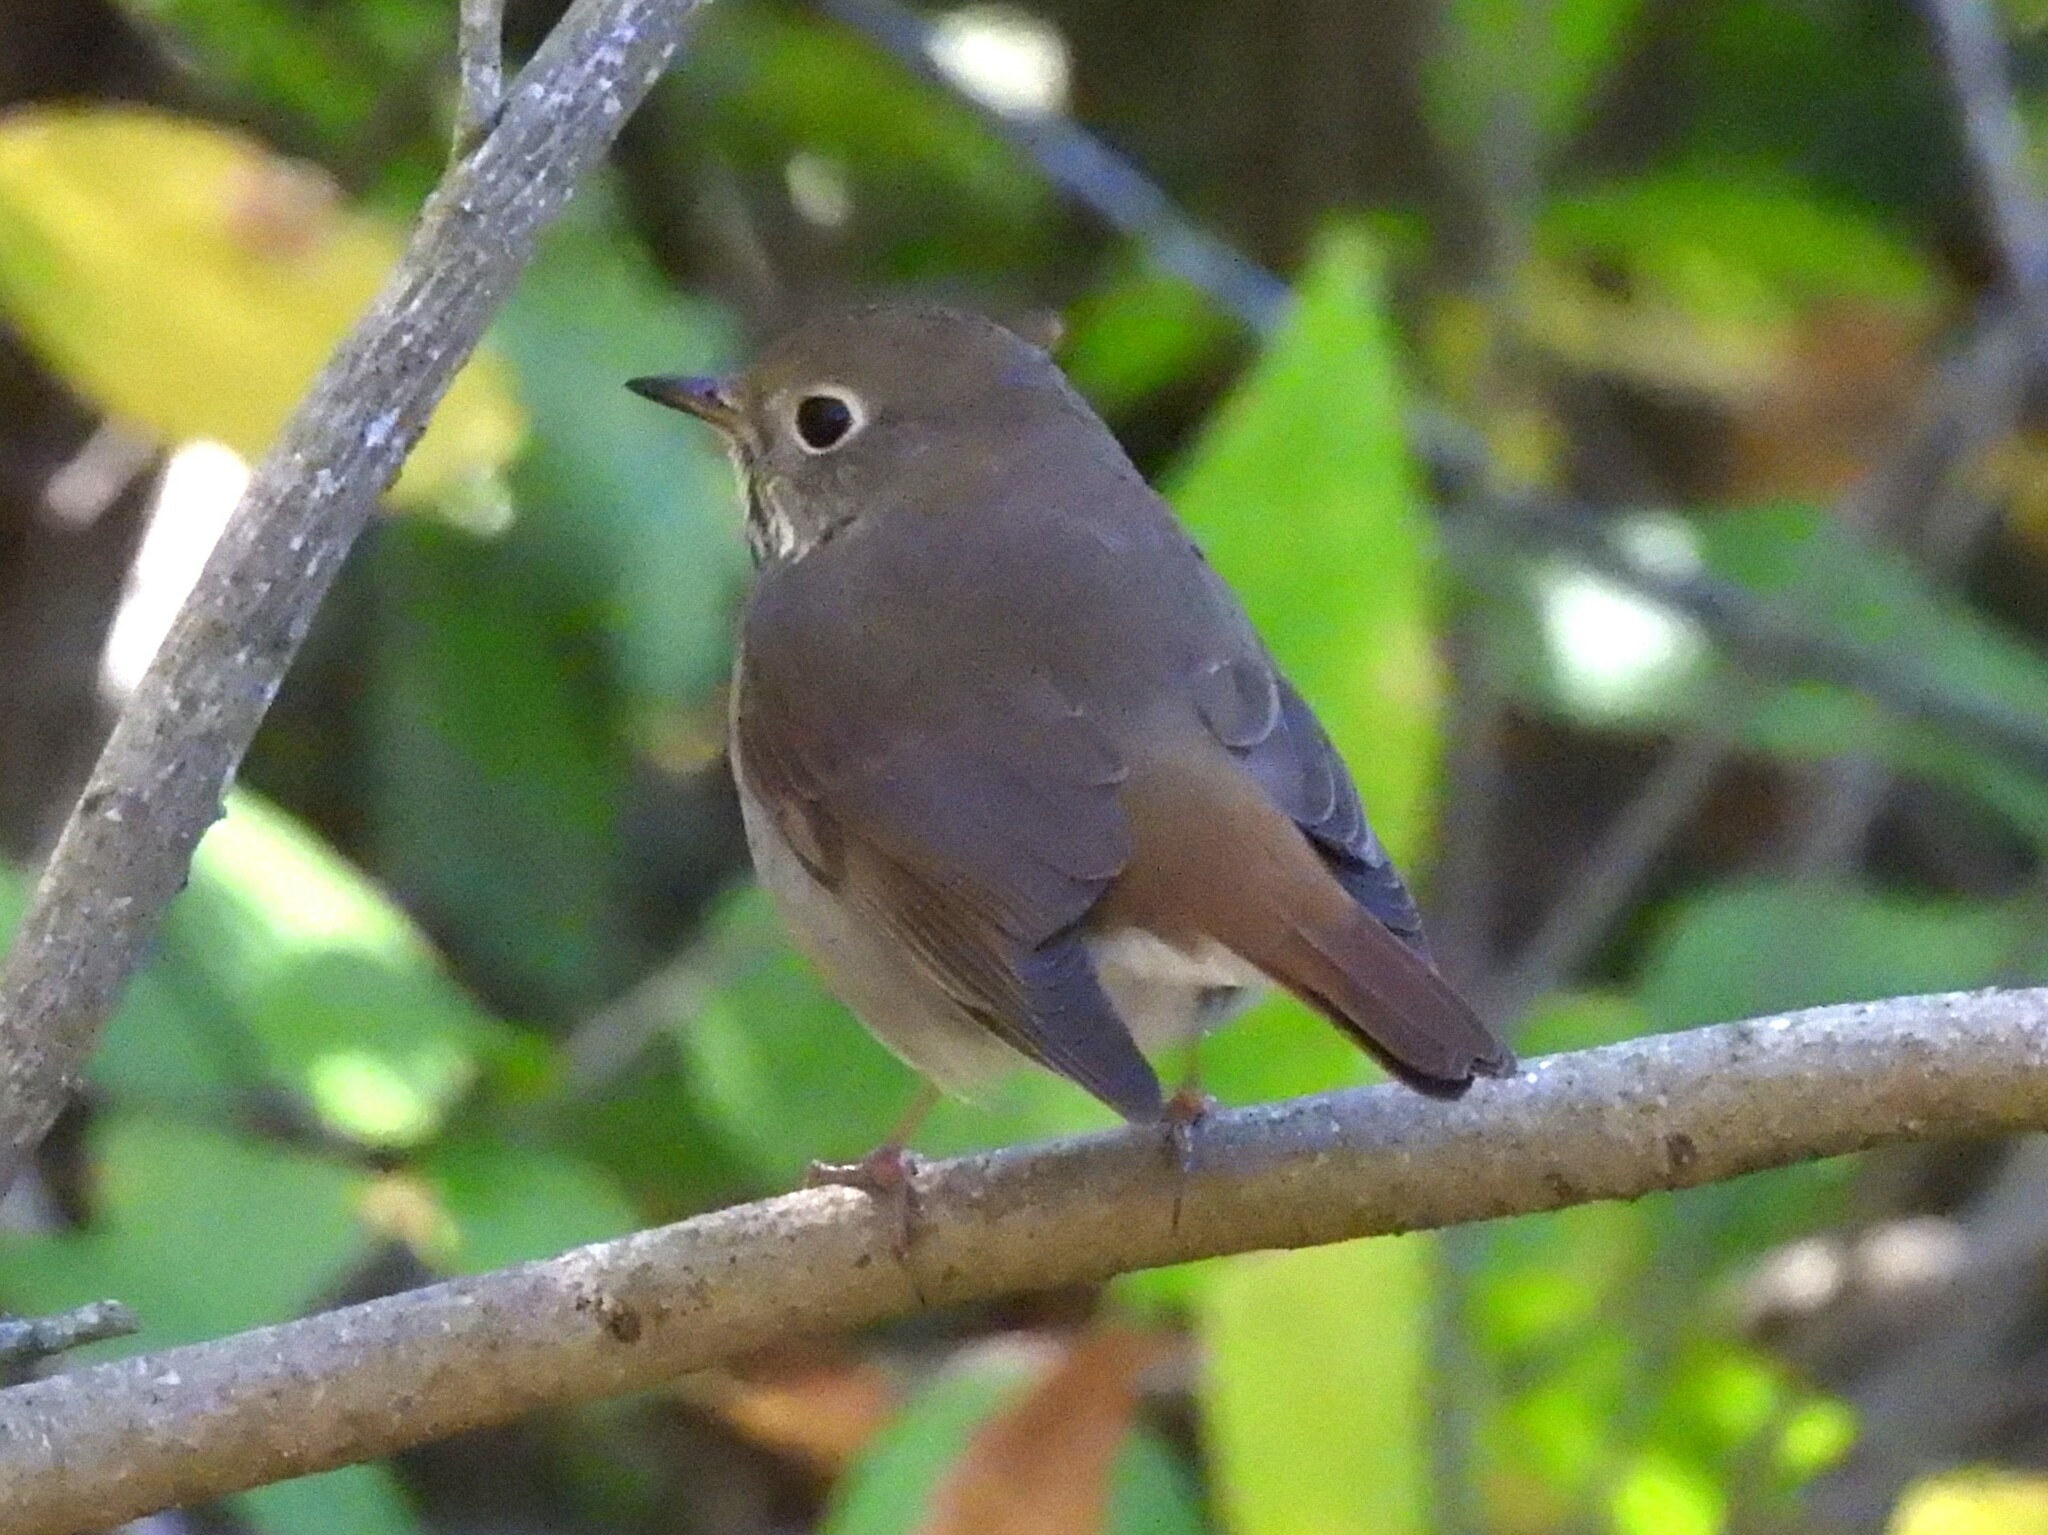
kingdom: Animalia
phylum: Chordata
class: Aves
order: Passeriformes
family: Turdidae
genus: Catharus
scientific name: Catharus guttatus
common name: Hermit thrush
